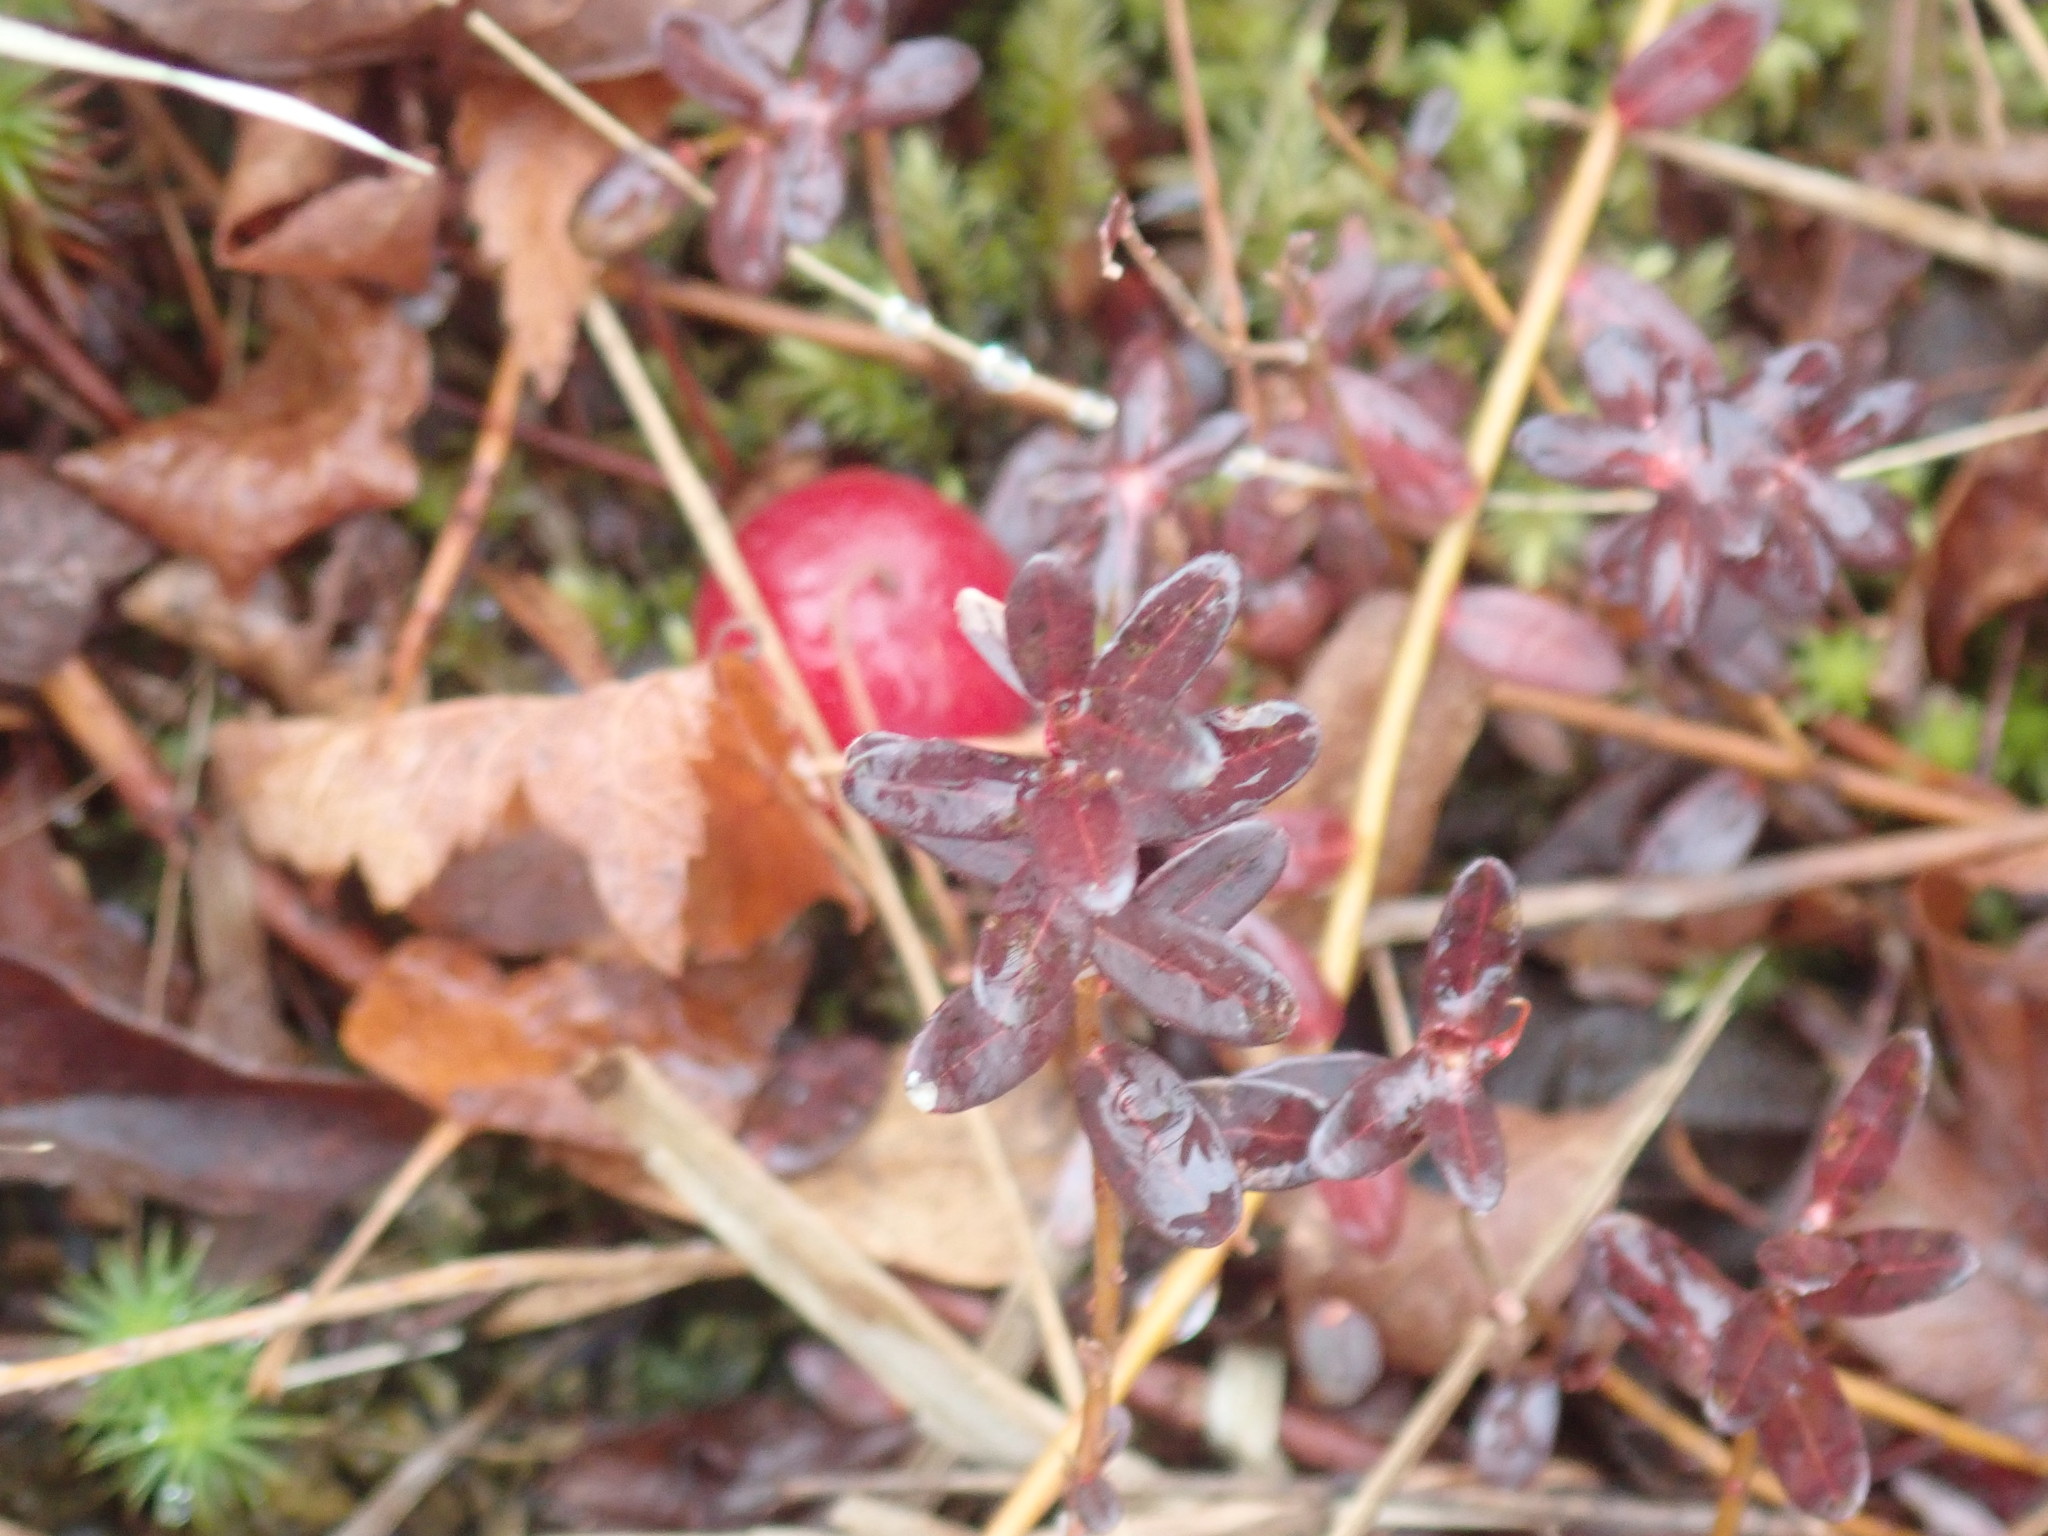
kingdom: Plantae
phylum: Tracheophyta
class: Magnoliopsida
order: Ericales
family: Ericaceae
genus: Vaccinium
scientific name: Vaccinium macrocarpon
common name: American cranberry
